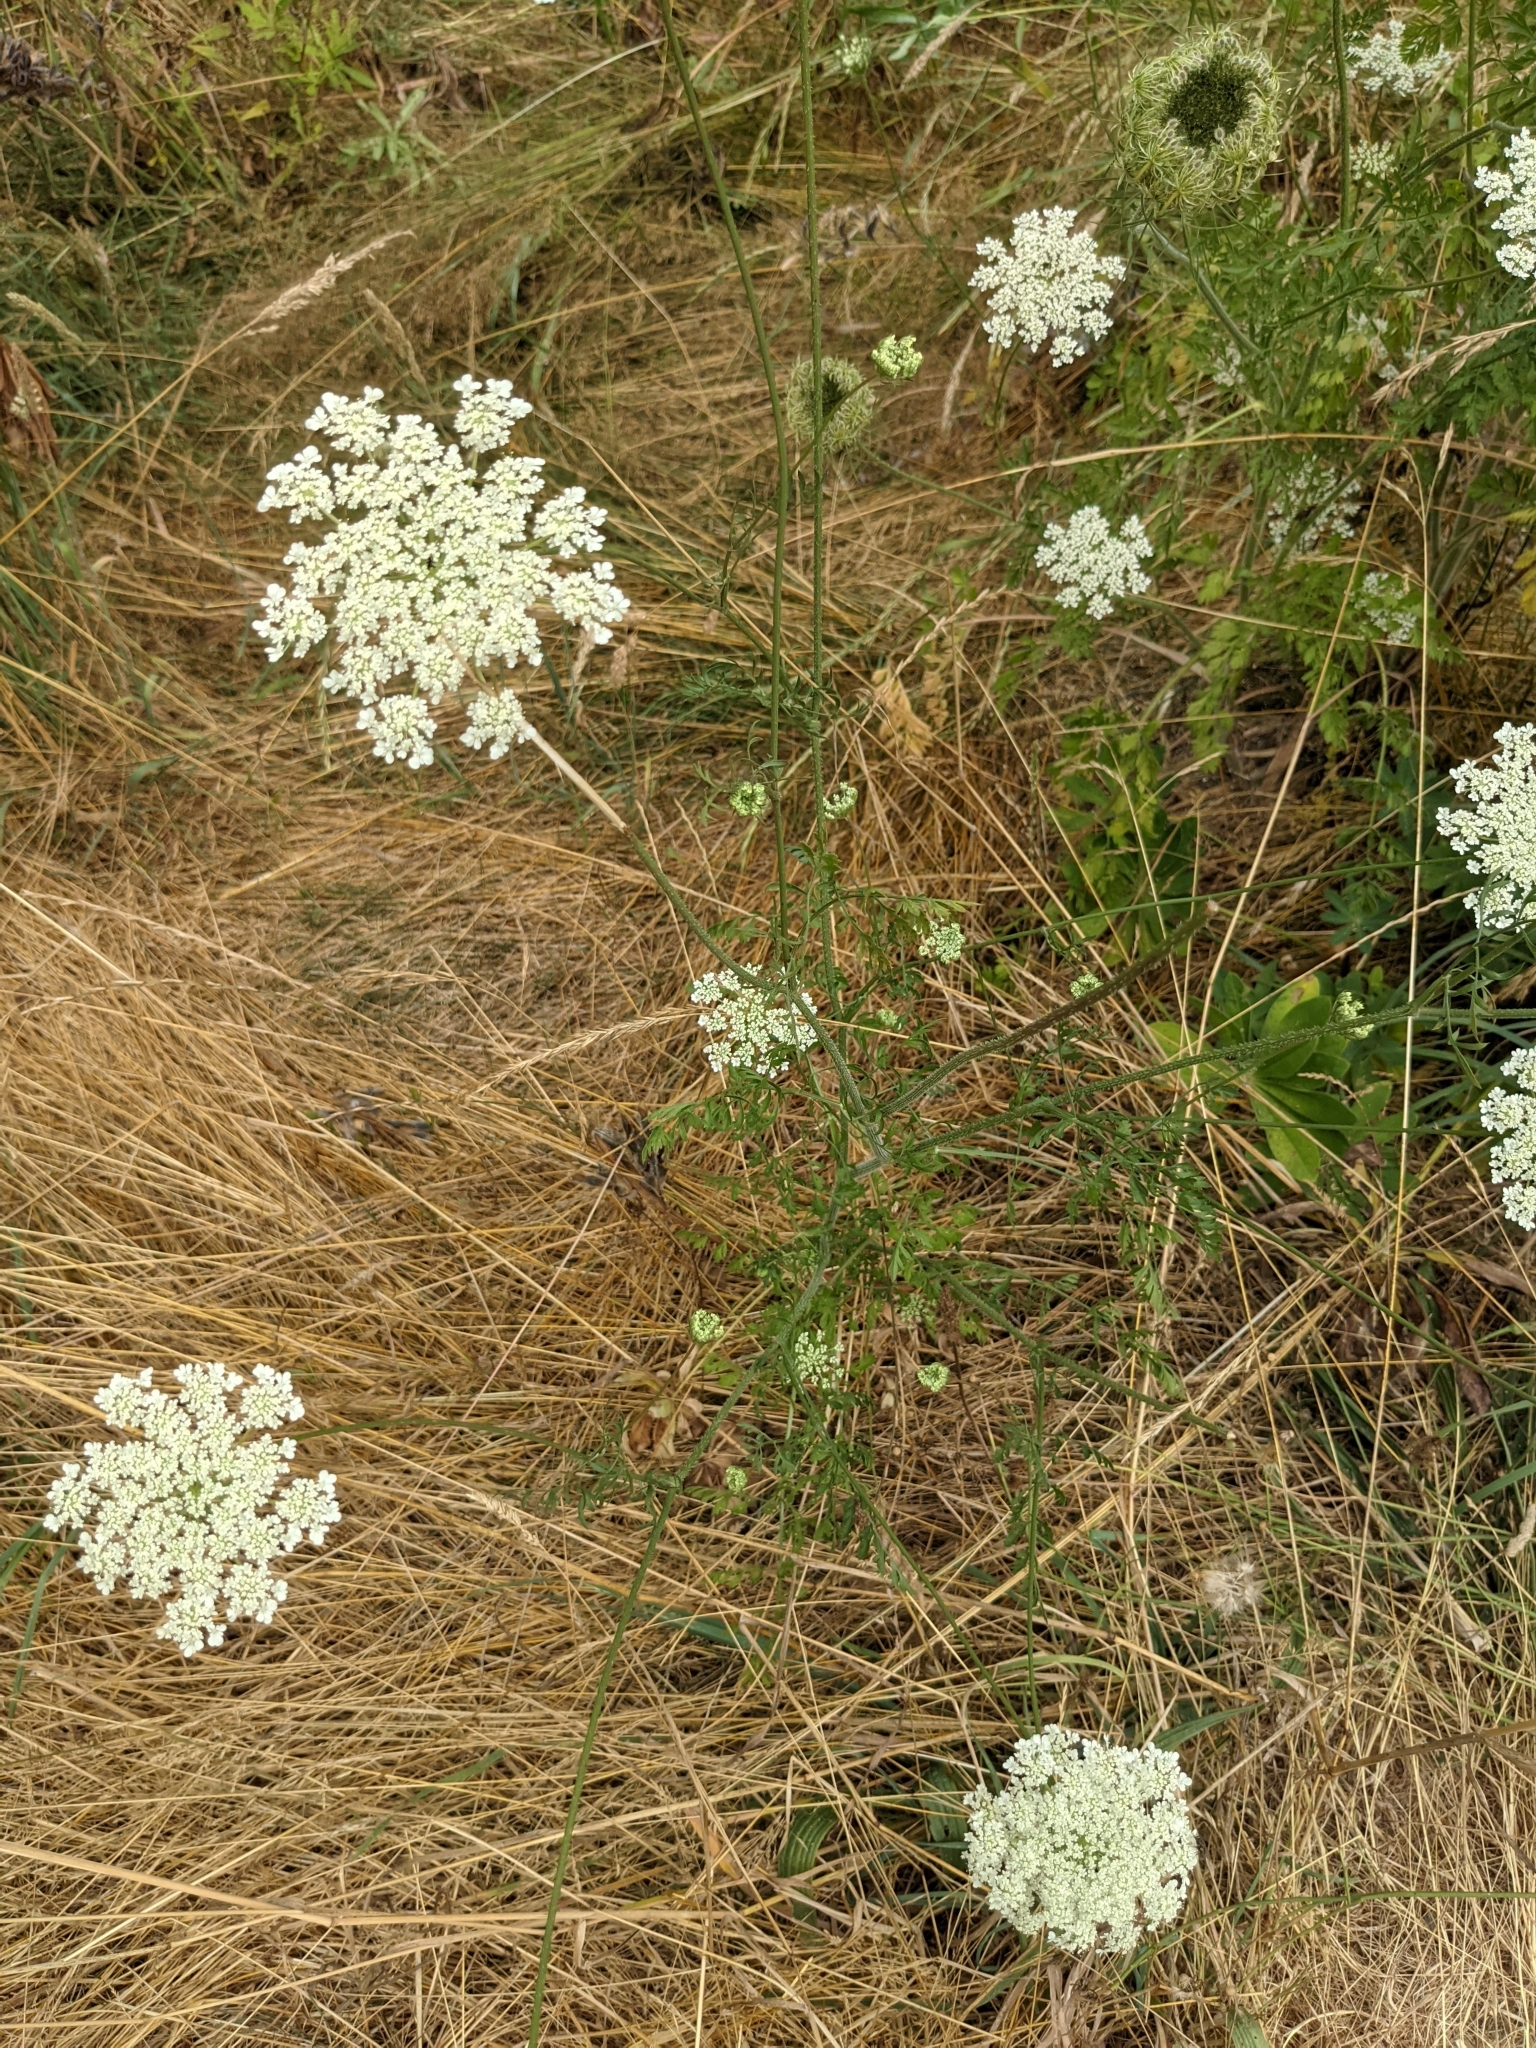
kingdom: Plantae
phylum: Tracheophyta
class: Magnoliopsida
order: Apiales
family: Apiaceae
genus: Daucus
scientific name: Daucus carota
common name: Wild carrot
